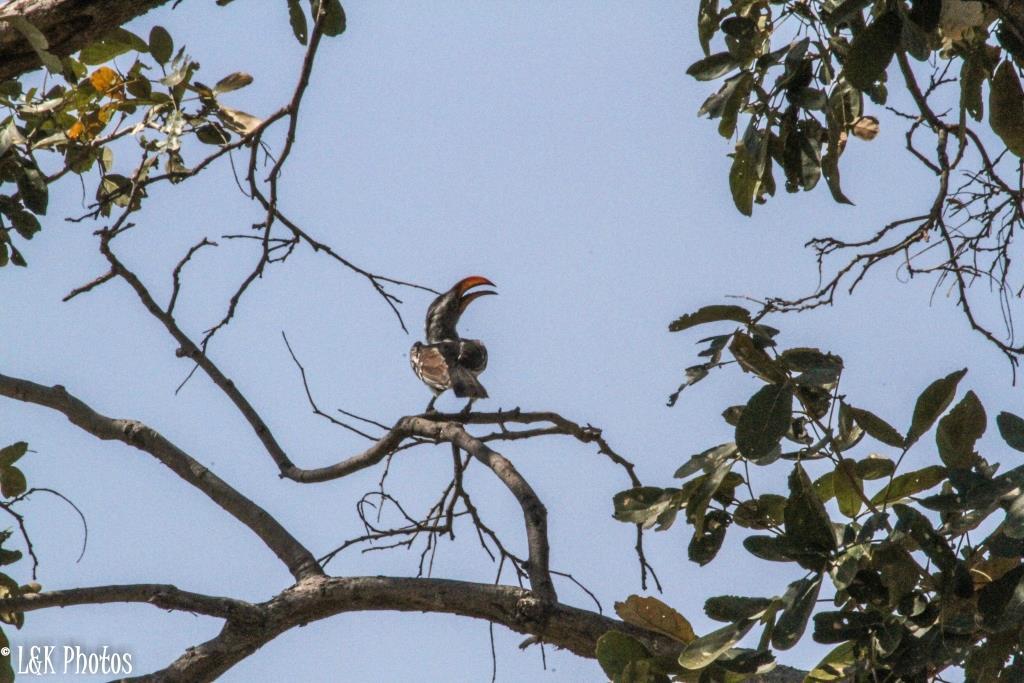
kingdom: Animalia
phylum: Chordata
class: Aves
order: Bucerotiformes
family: Bucerotidae
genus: Tockus
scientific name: Tockus leucomelas
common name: Southern yellow-billed hornbill
